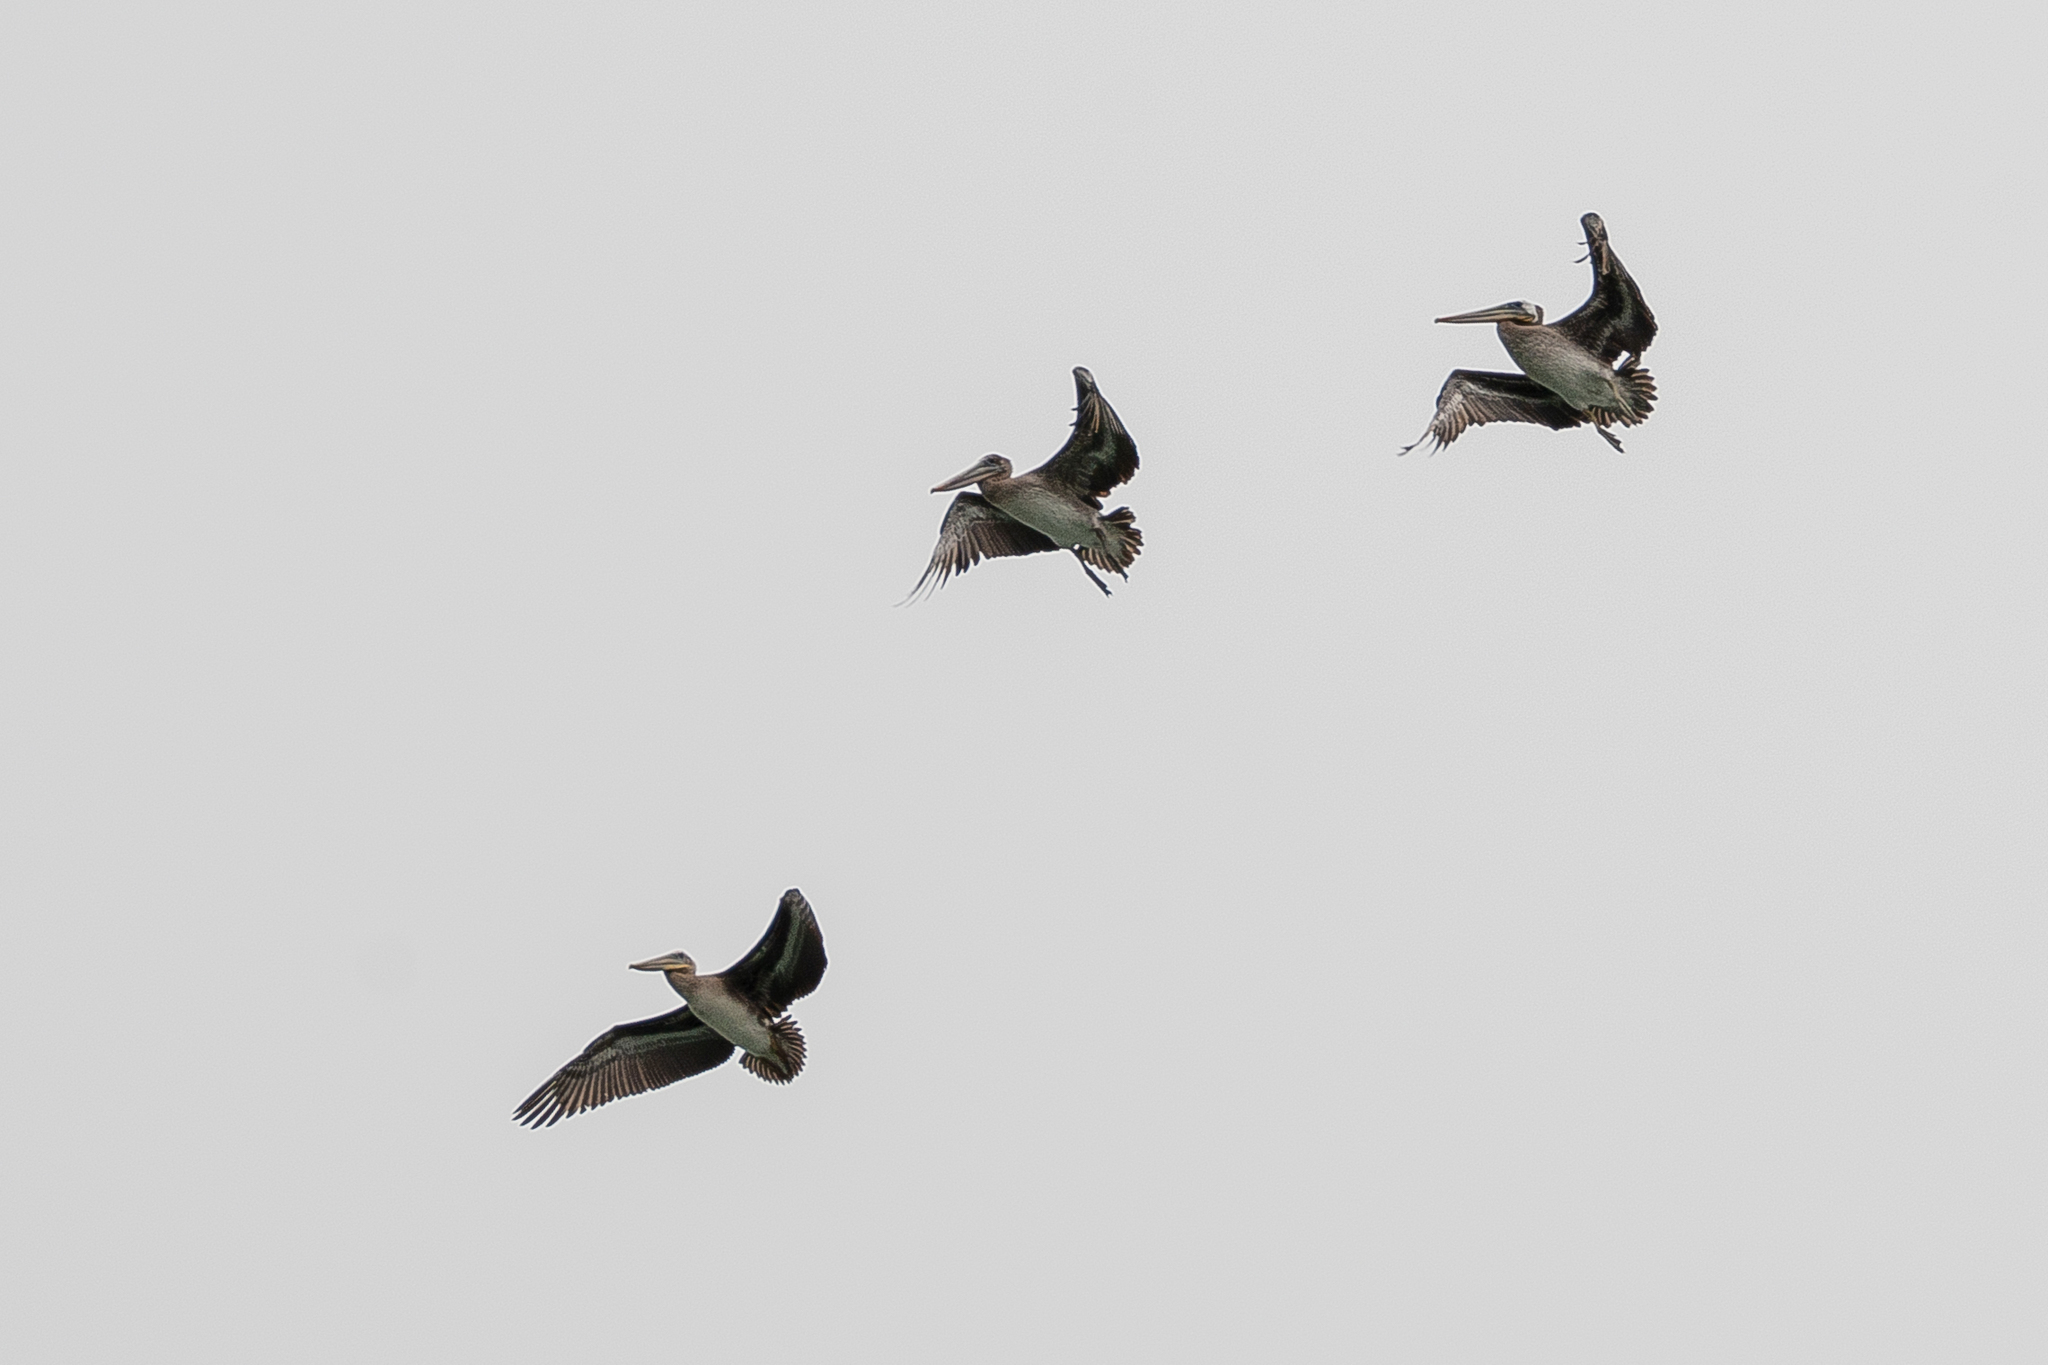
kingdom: Animalia
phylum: Chordata
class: Aves
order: Pelecaniformes
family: Pelecanidae
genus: Pelecanus
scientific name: Pelecanus occidentalis
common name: Brown pelican
